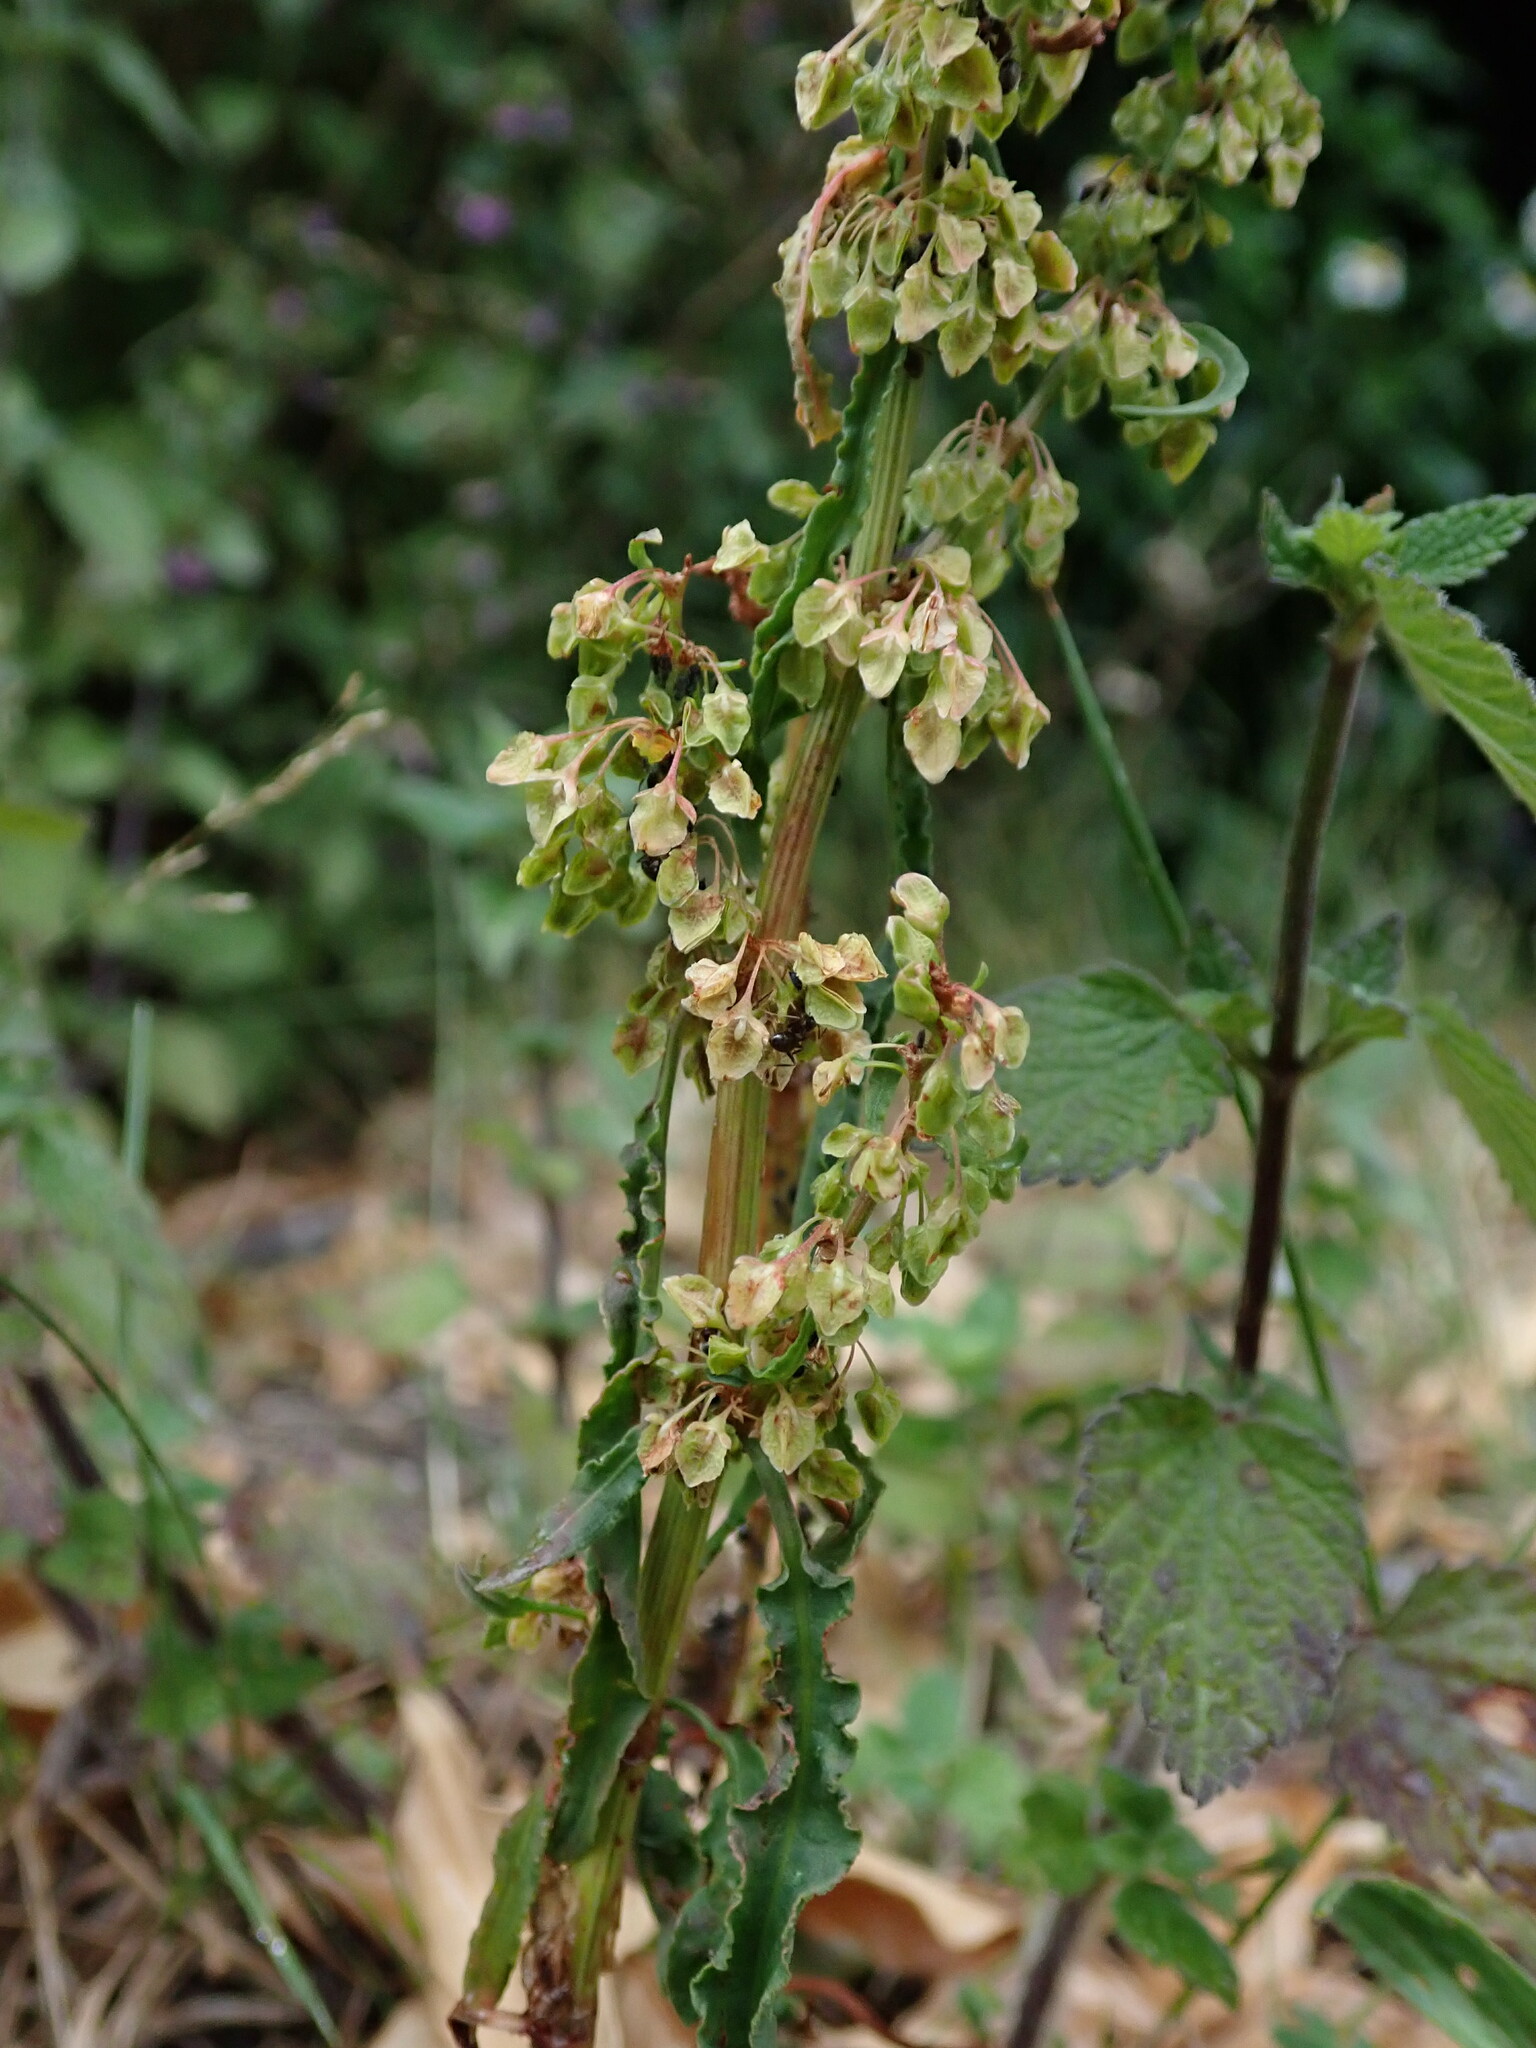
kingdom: Plantae
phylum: Tracheophyta
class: Magnoliopsida
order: Caryophyllales
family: Polygonaceae
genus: Rumex
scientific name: Rumex crispus
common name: Curled dock
